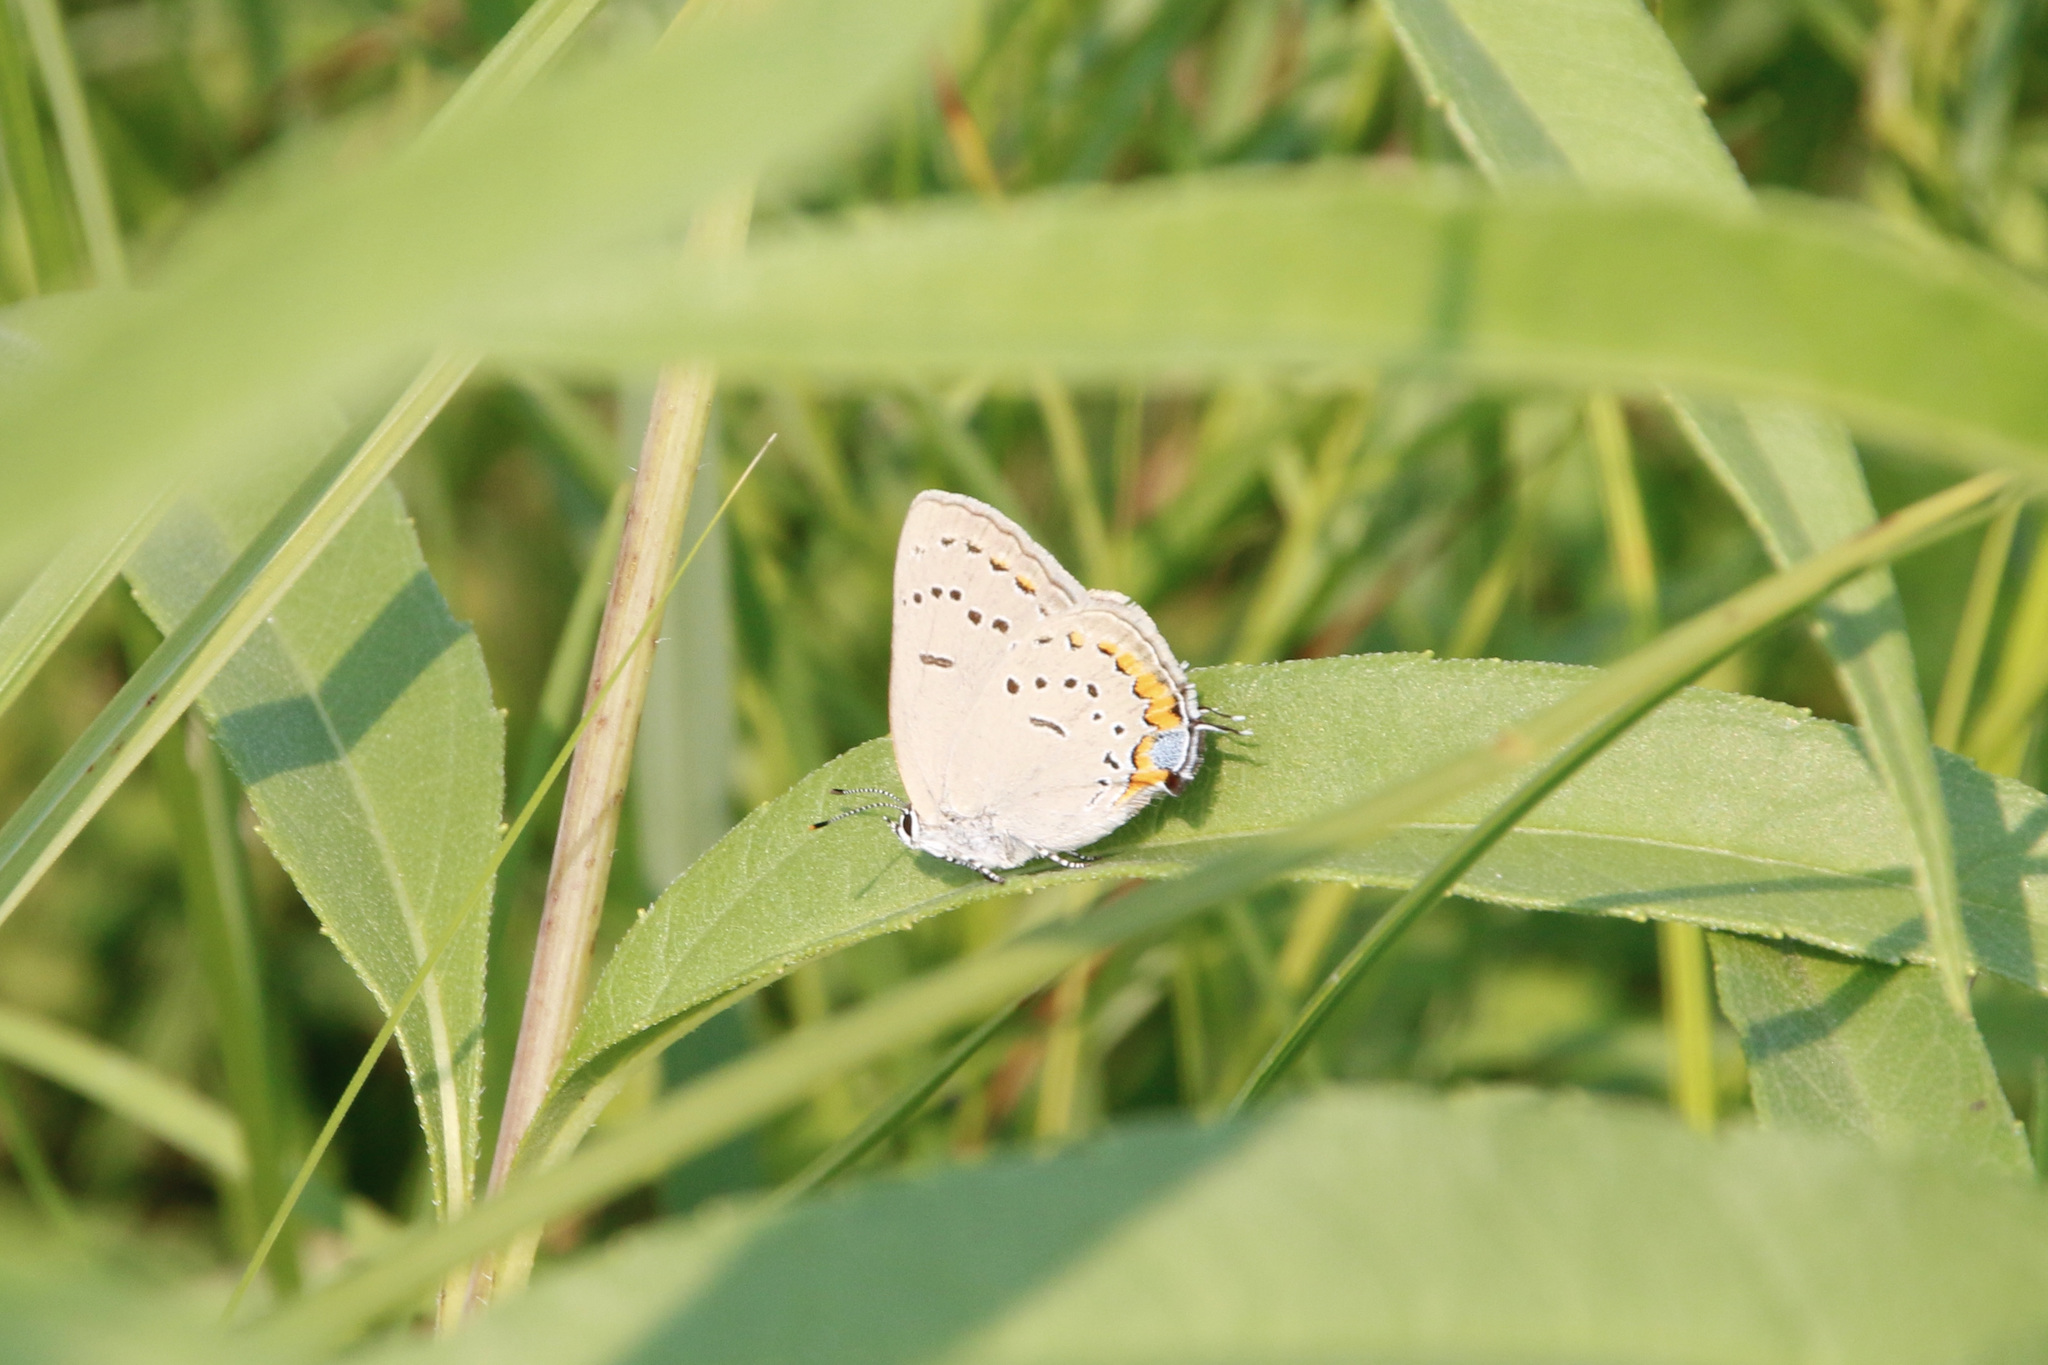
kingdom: Animalia
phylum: Arthropoda
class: Insecta
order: Lepidoptera
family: Lycaenidae
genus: Strymon
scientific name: Strymon acadica
